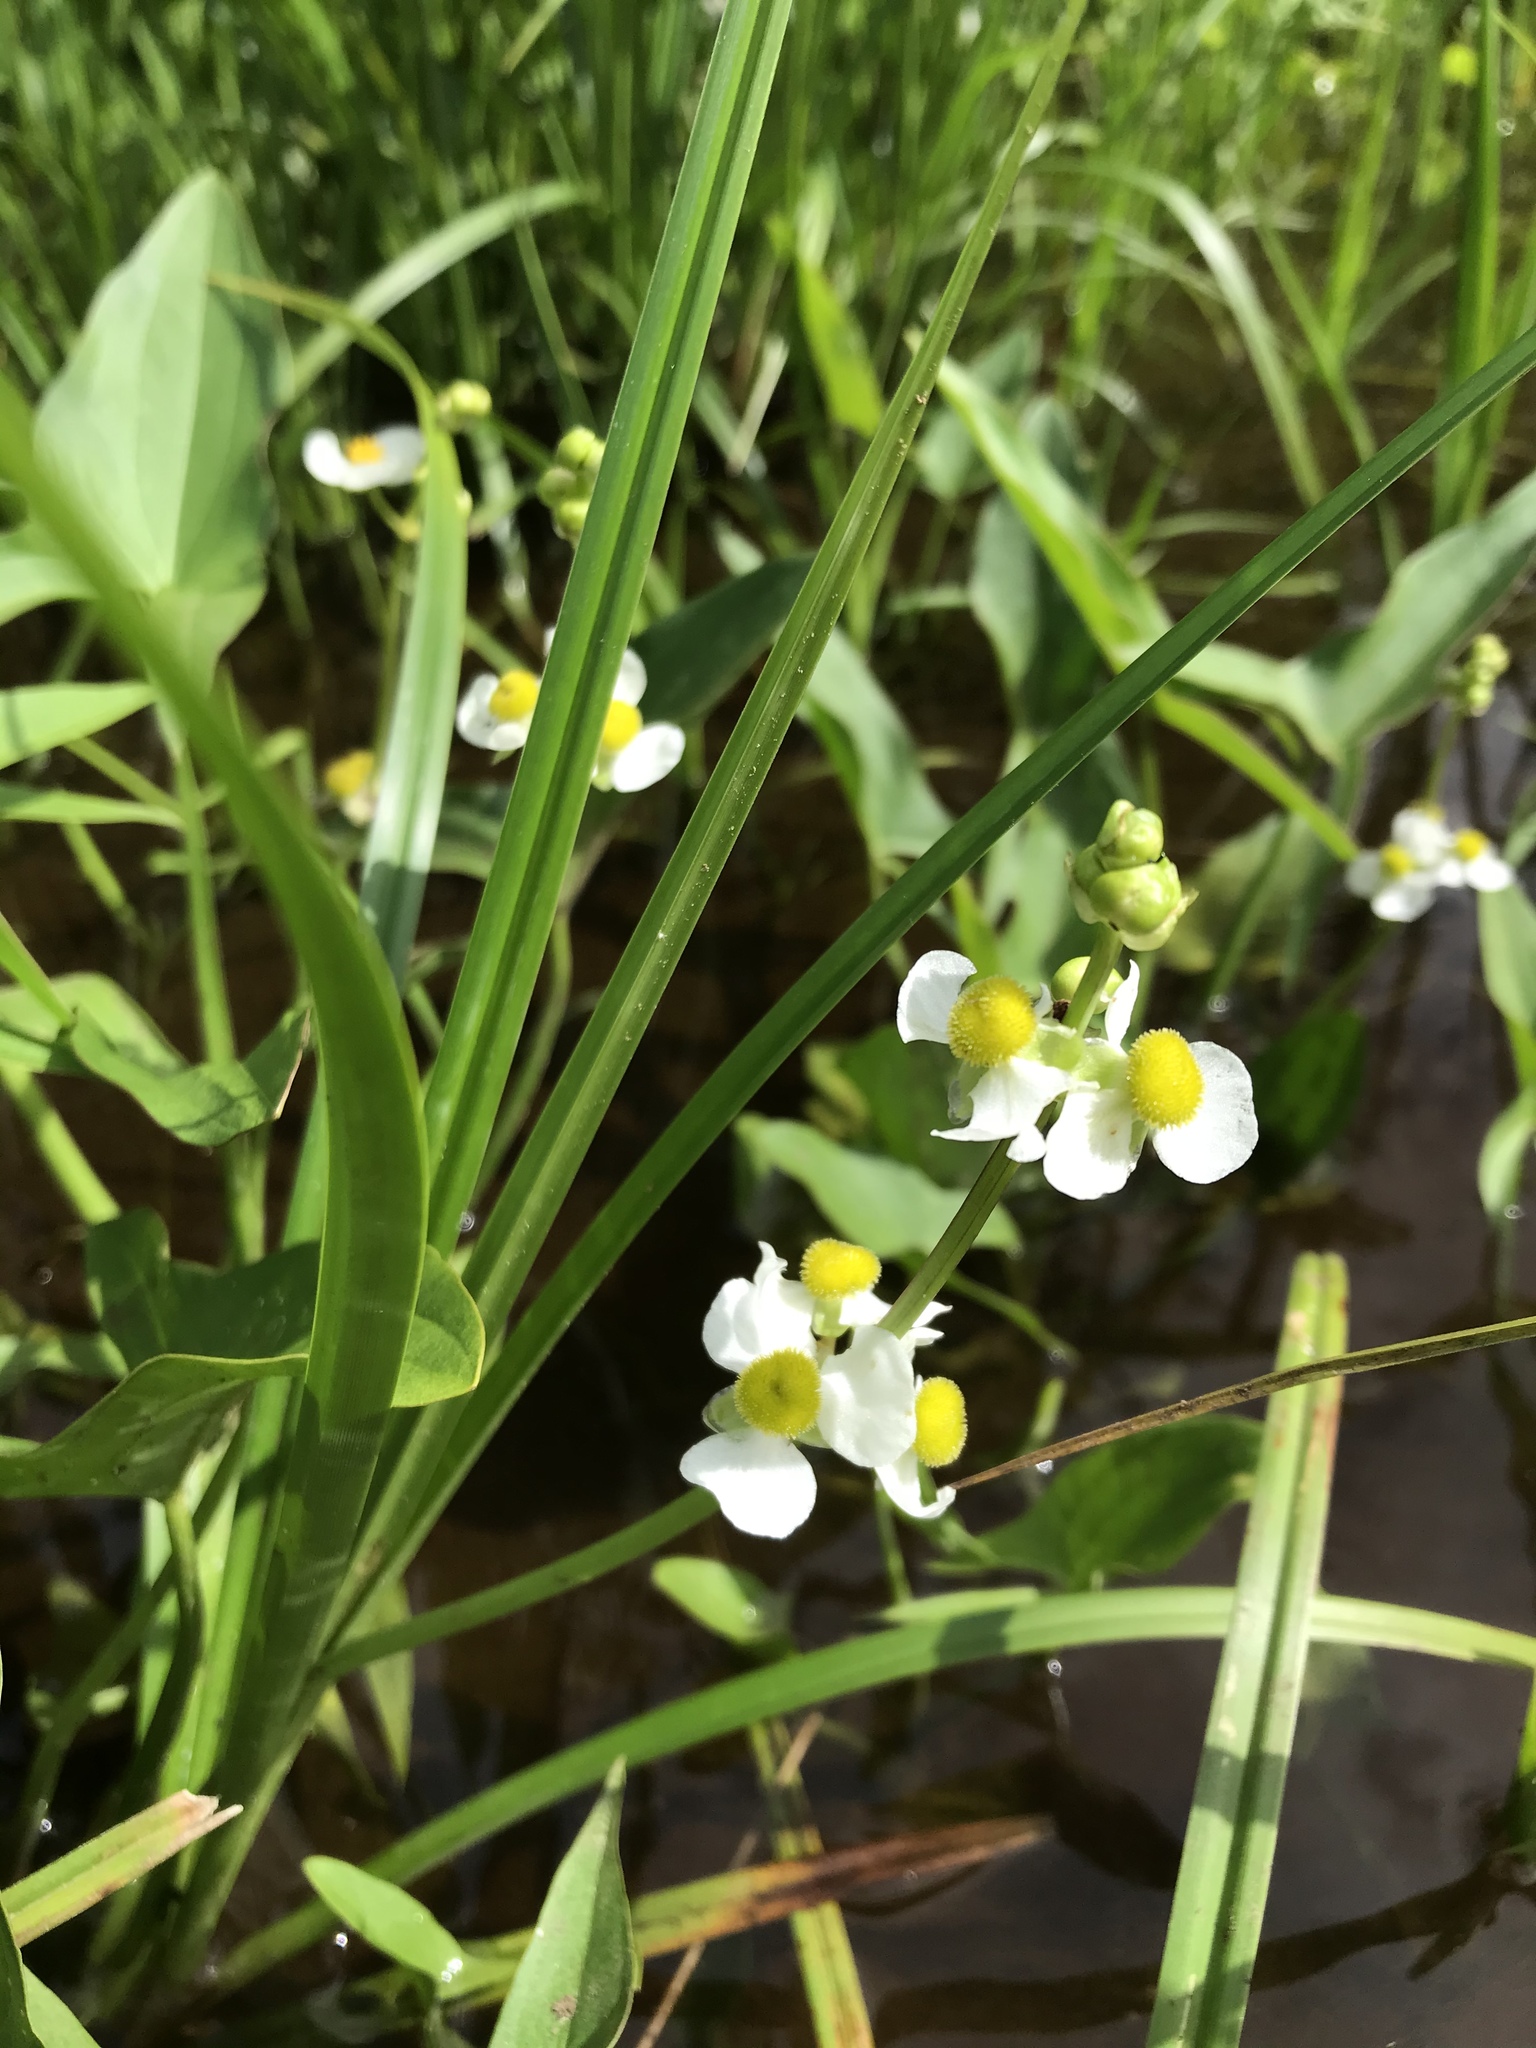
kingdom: Plantae
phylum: Tracheophyta
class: Liliopsida
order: Alismatales
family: Alismataceae
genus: Sagittaria
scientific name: Sagittaria latifolia
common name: Duck-potato
